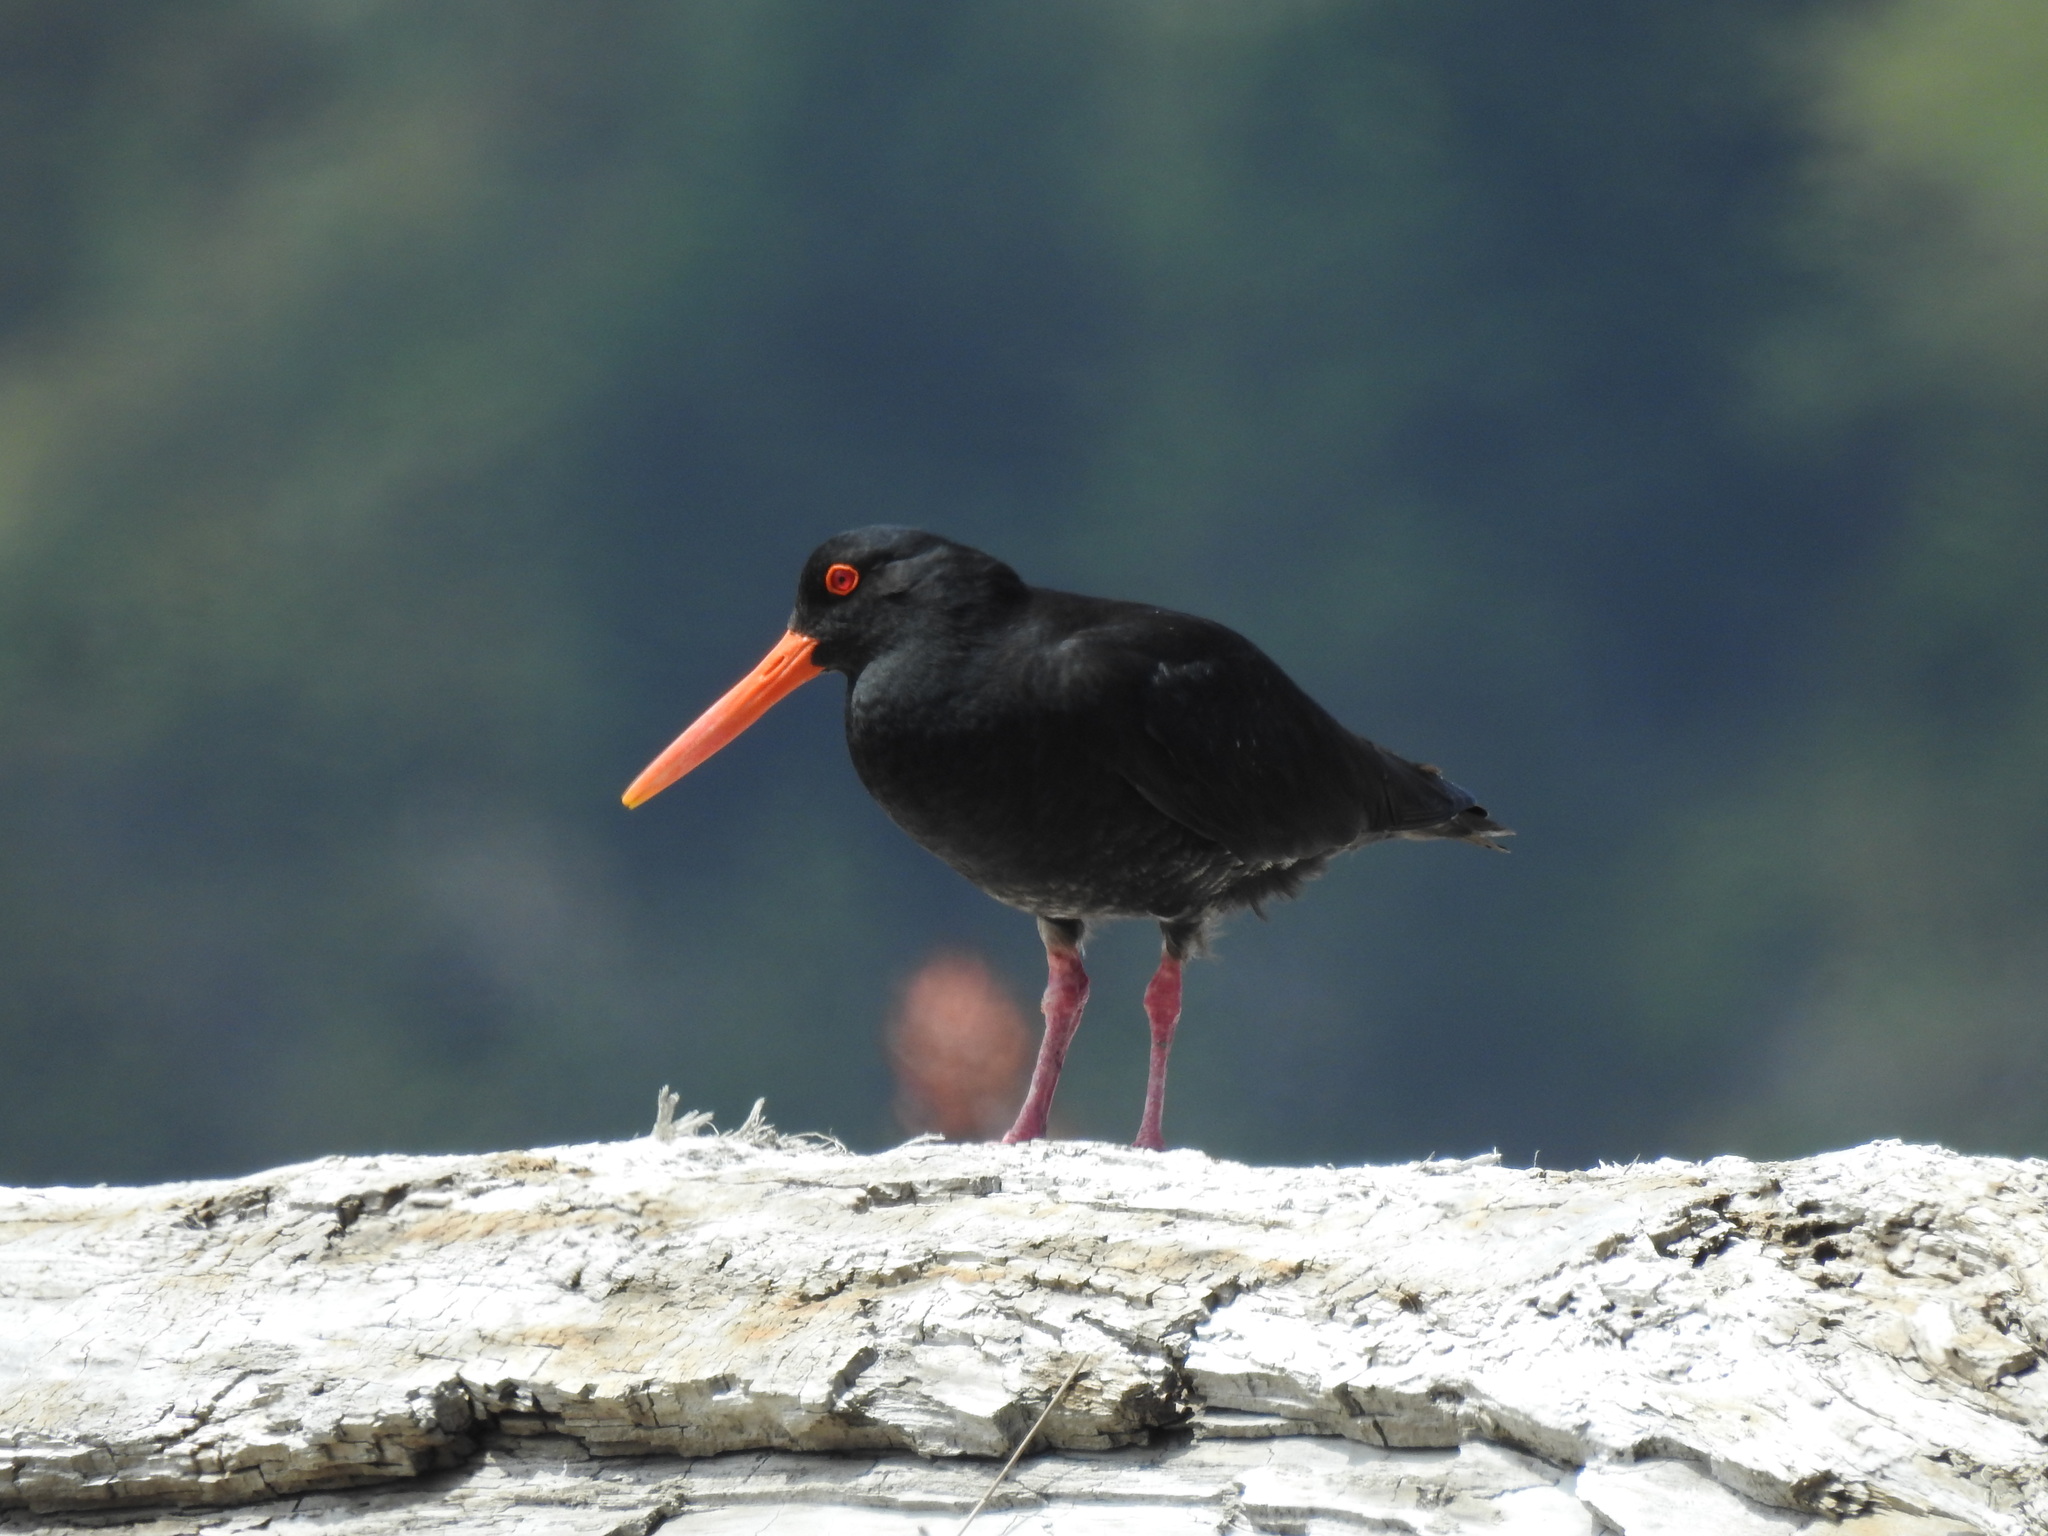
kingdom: Animalia
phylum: Chordata
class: Aves
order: Charadriiformes
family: Haematopodidae
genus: Haematopus
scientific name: Haematopus unicolor
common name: Variable oystercatcher
